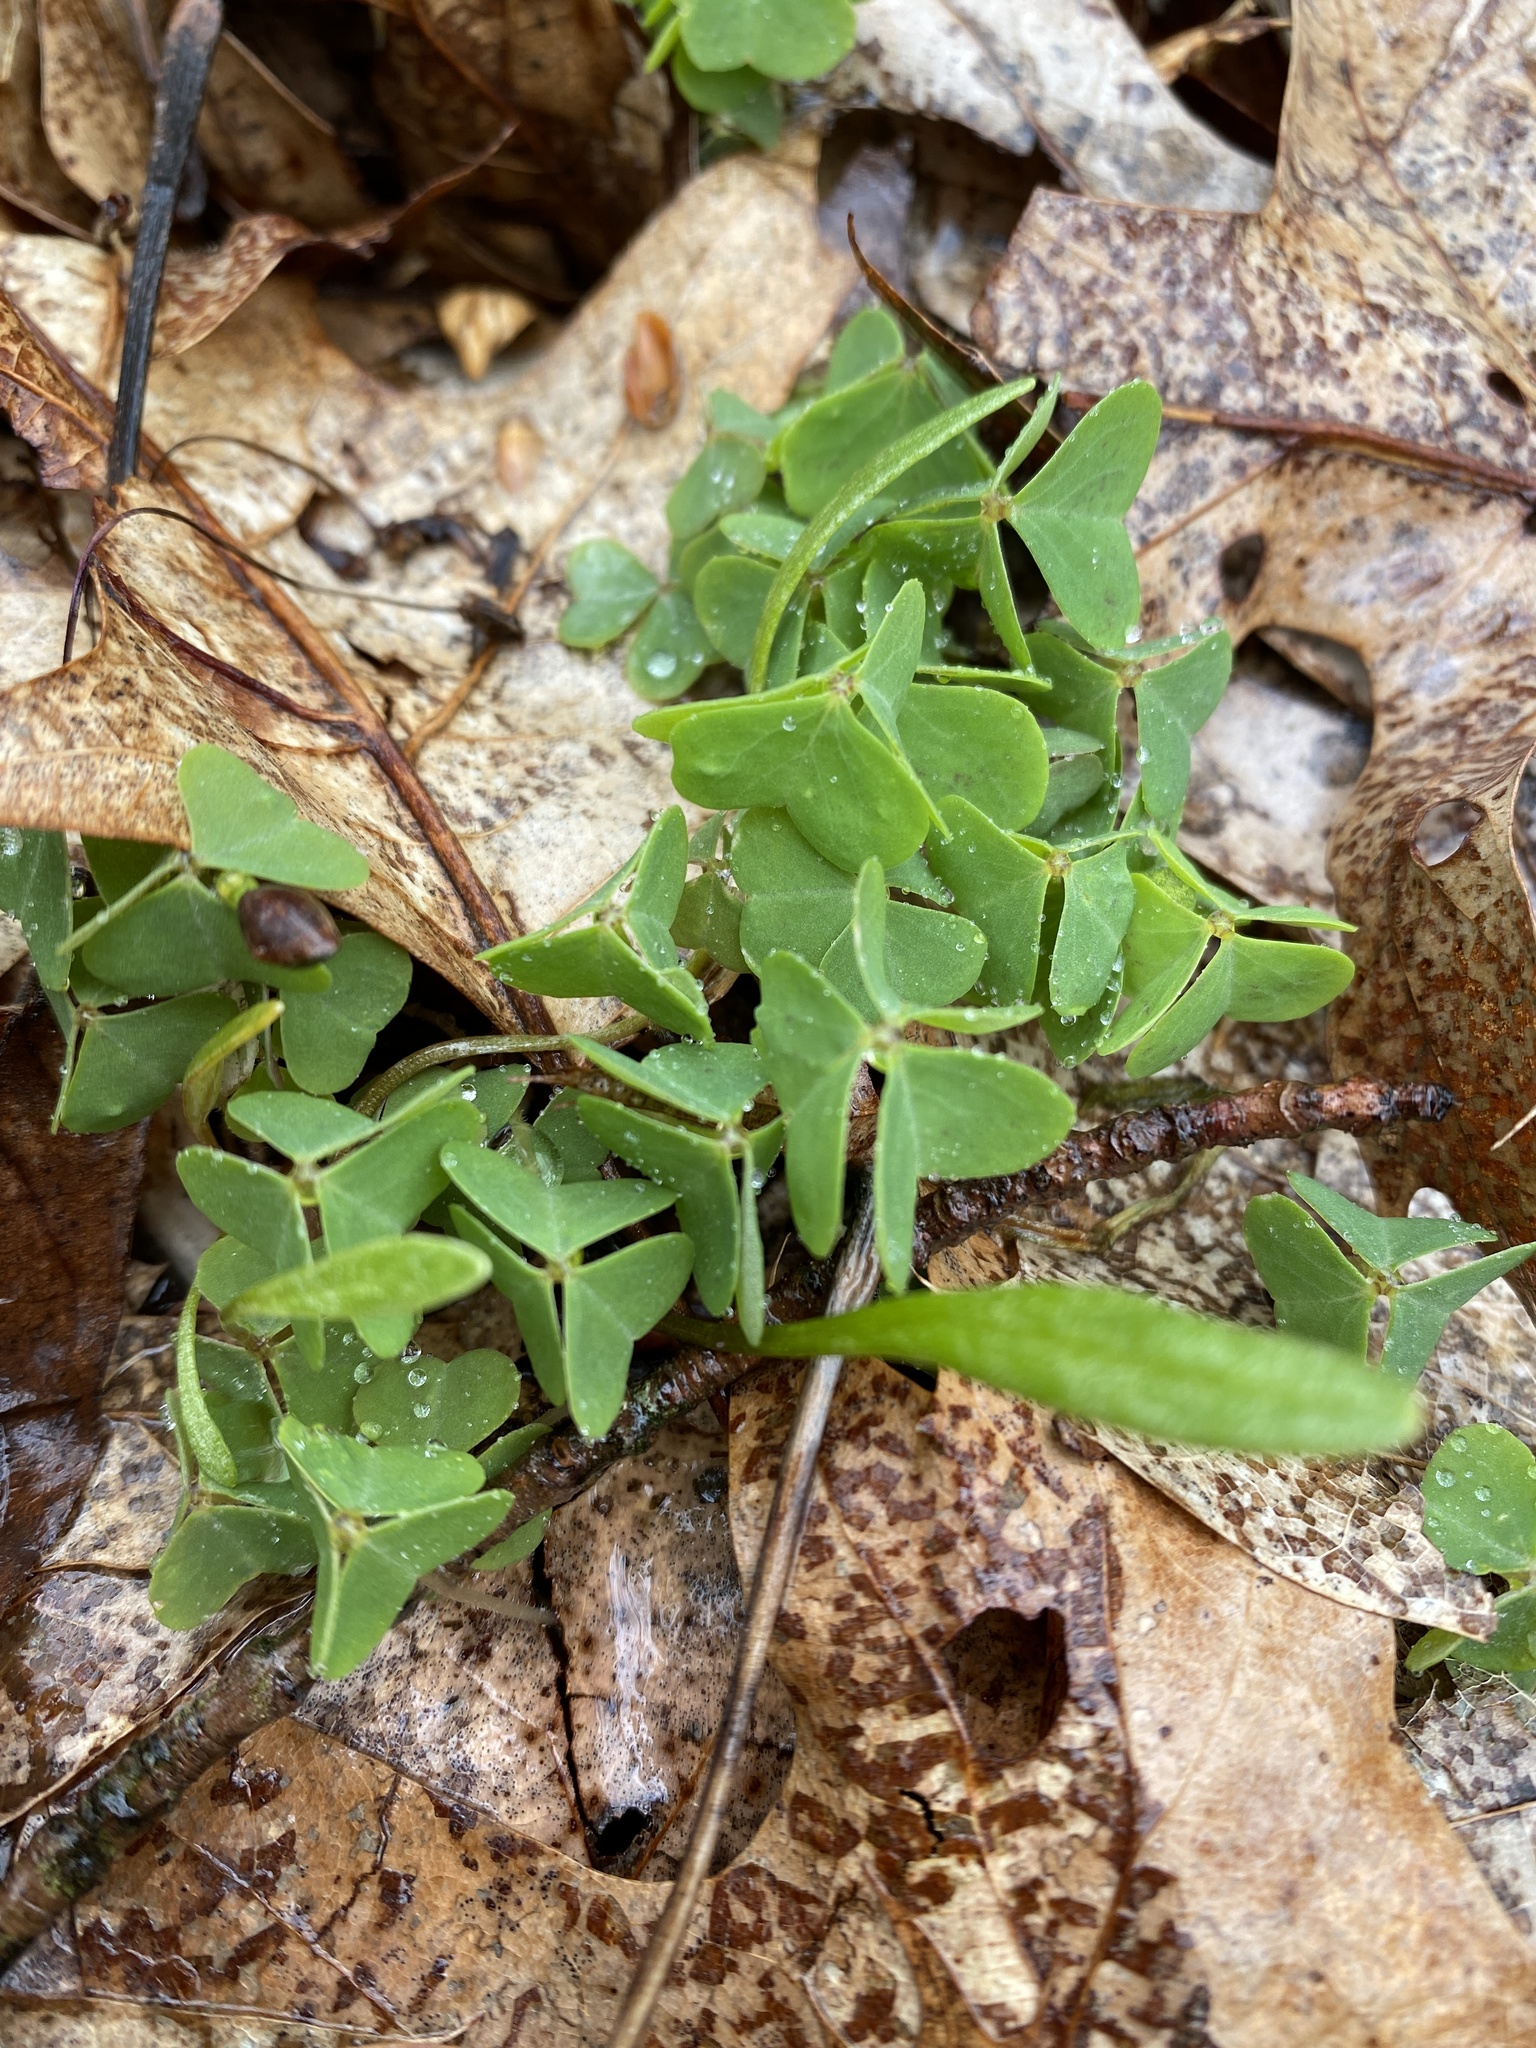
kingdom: Plantae
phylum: Tracheophyta
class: Magnoliopsida
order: Oxalidales
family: Oxalidaceae
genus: Oxalis
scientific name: Oxalis violacea
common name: Violet wood-sorrel
